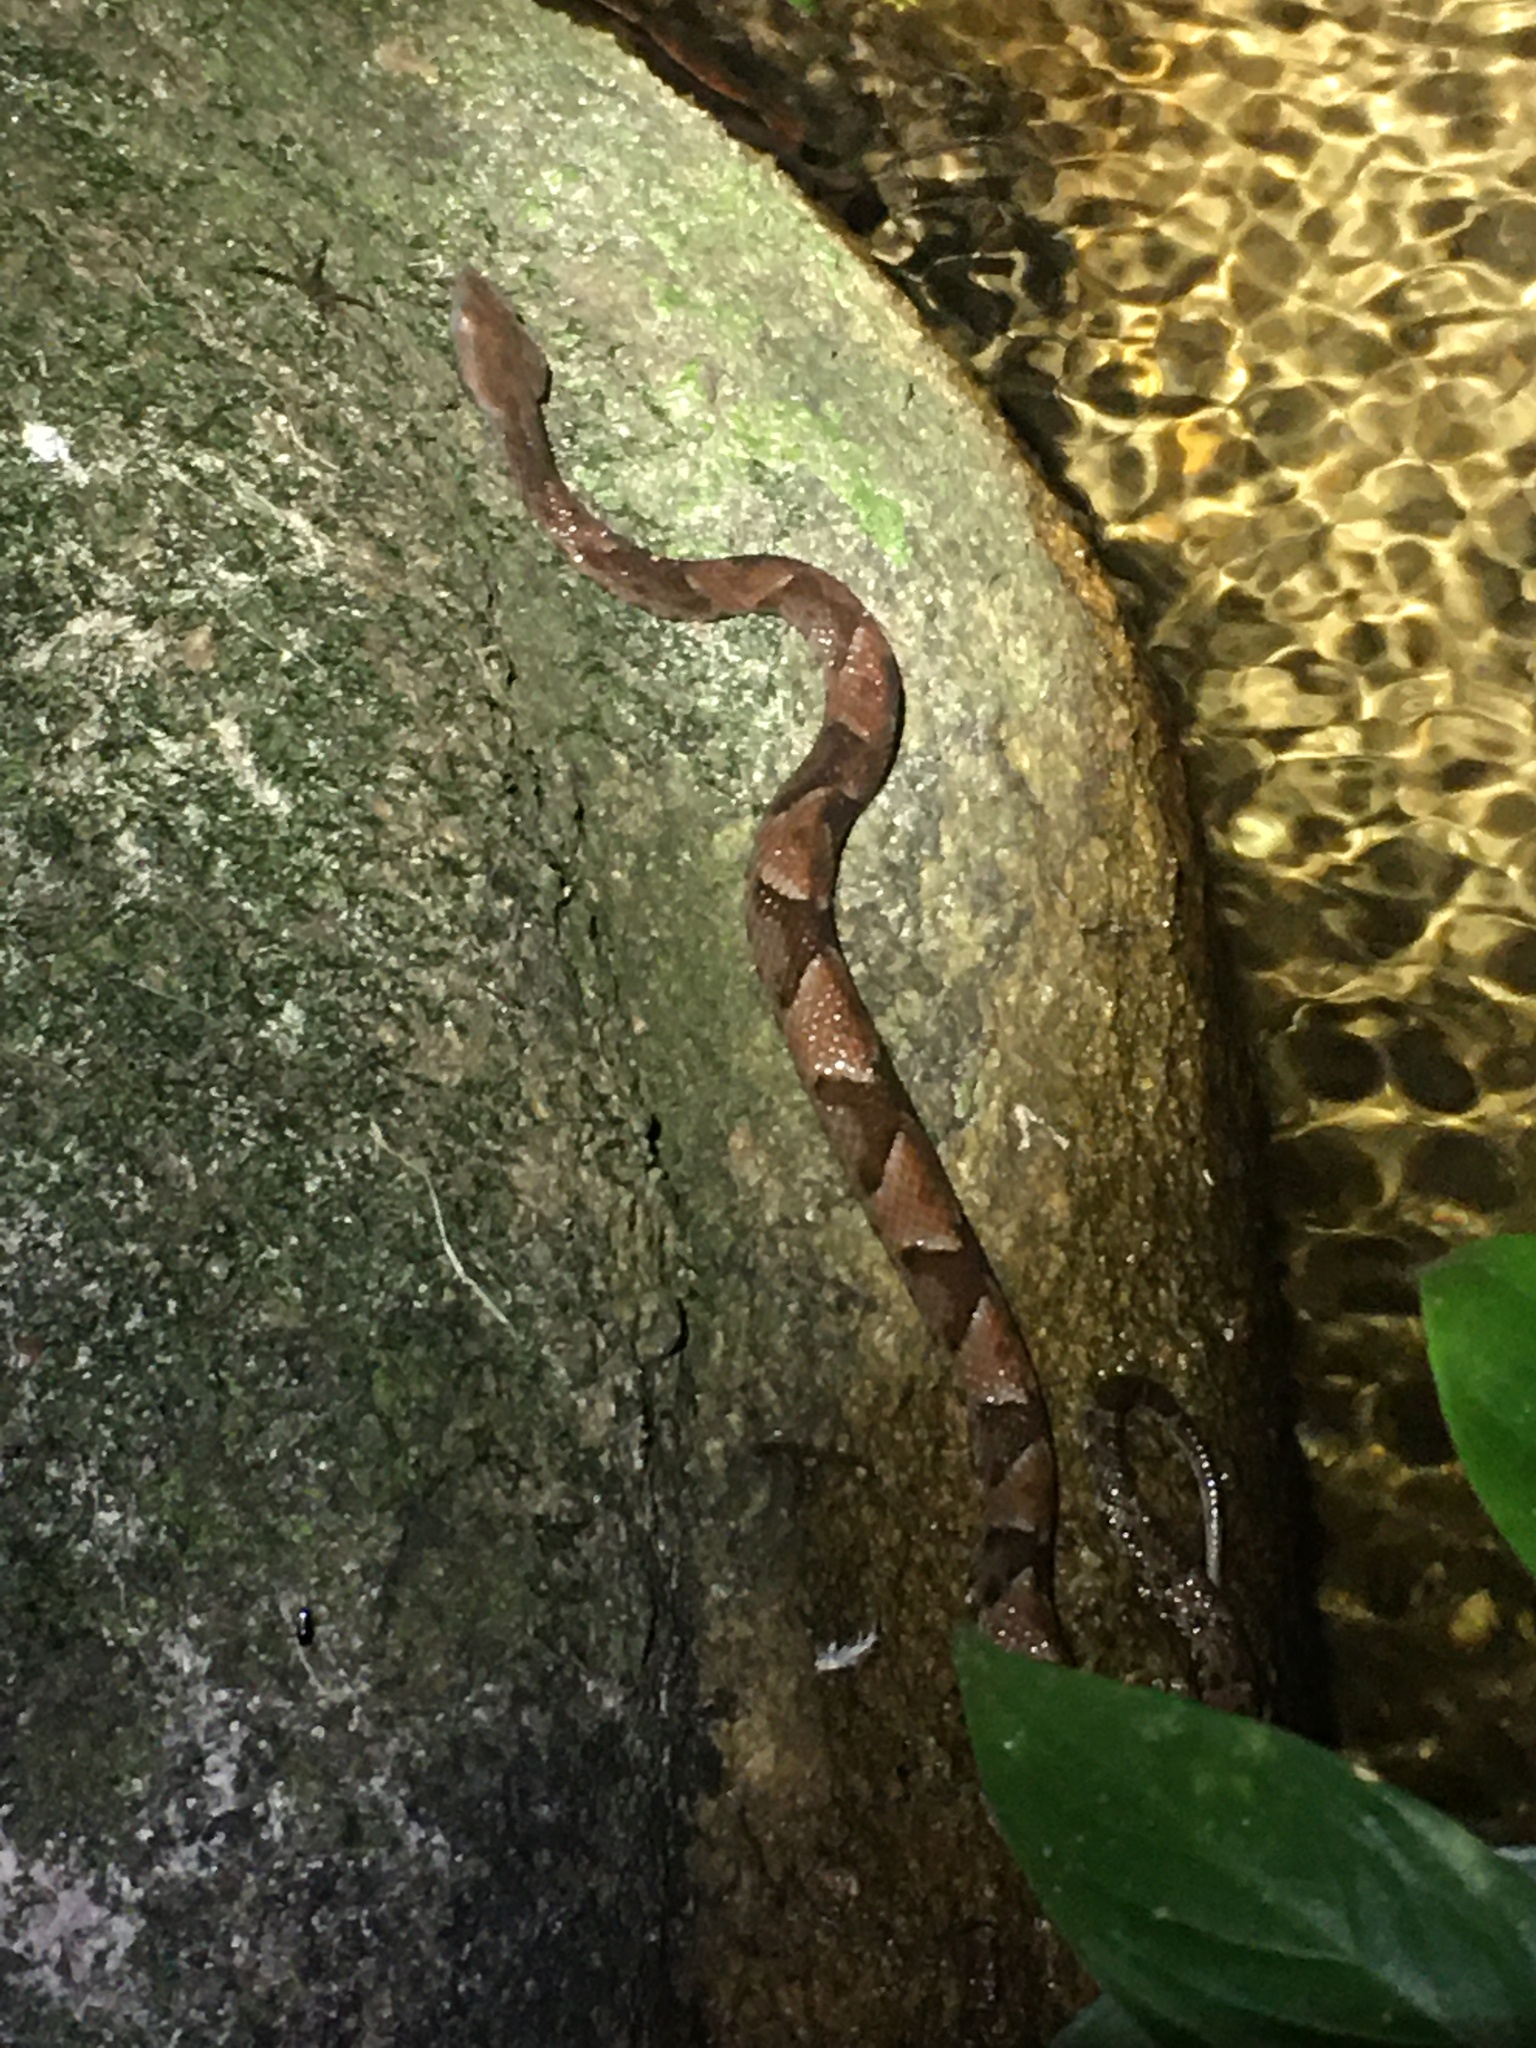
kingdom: Animalia
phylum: Chordata
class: Squamata
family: Viperidae
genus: Bothrops
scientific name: Bothrops muriciensis
